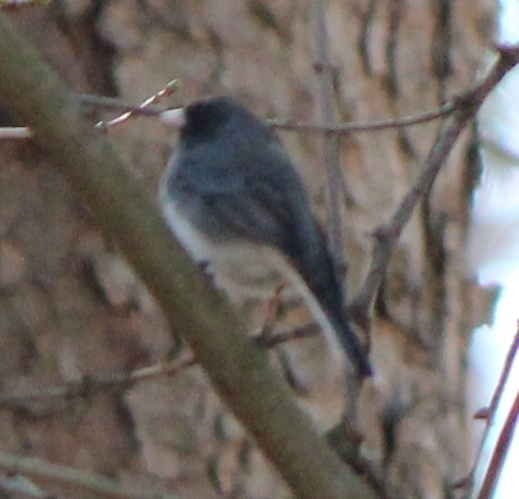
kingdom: Animalia
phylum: Chordata
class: Aves
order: Passeriformes
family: Passerellidae
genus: Junco
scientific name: Junco hyemalis
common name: Dark-eyed junco
